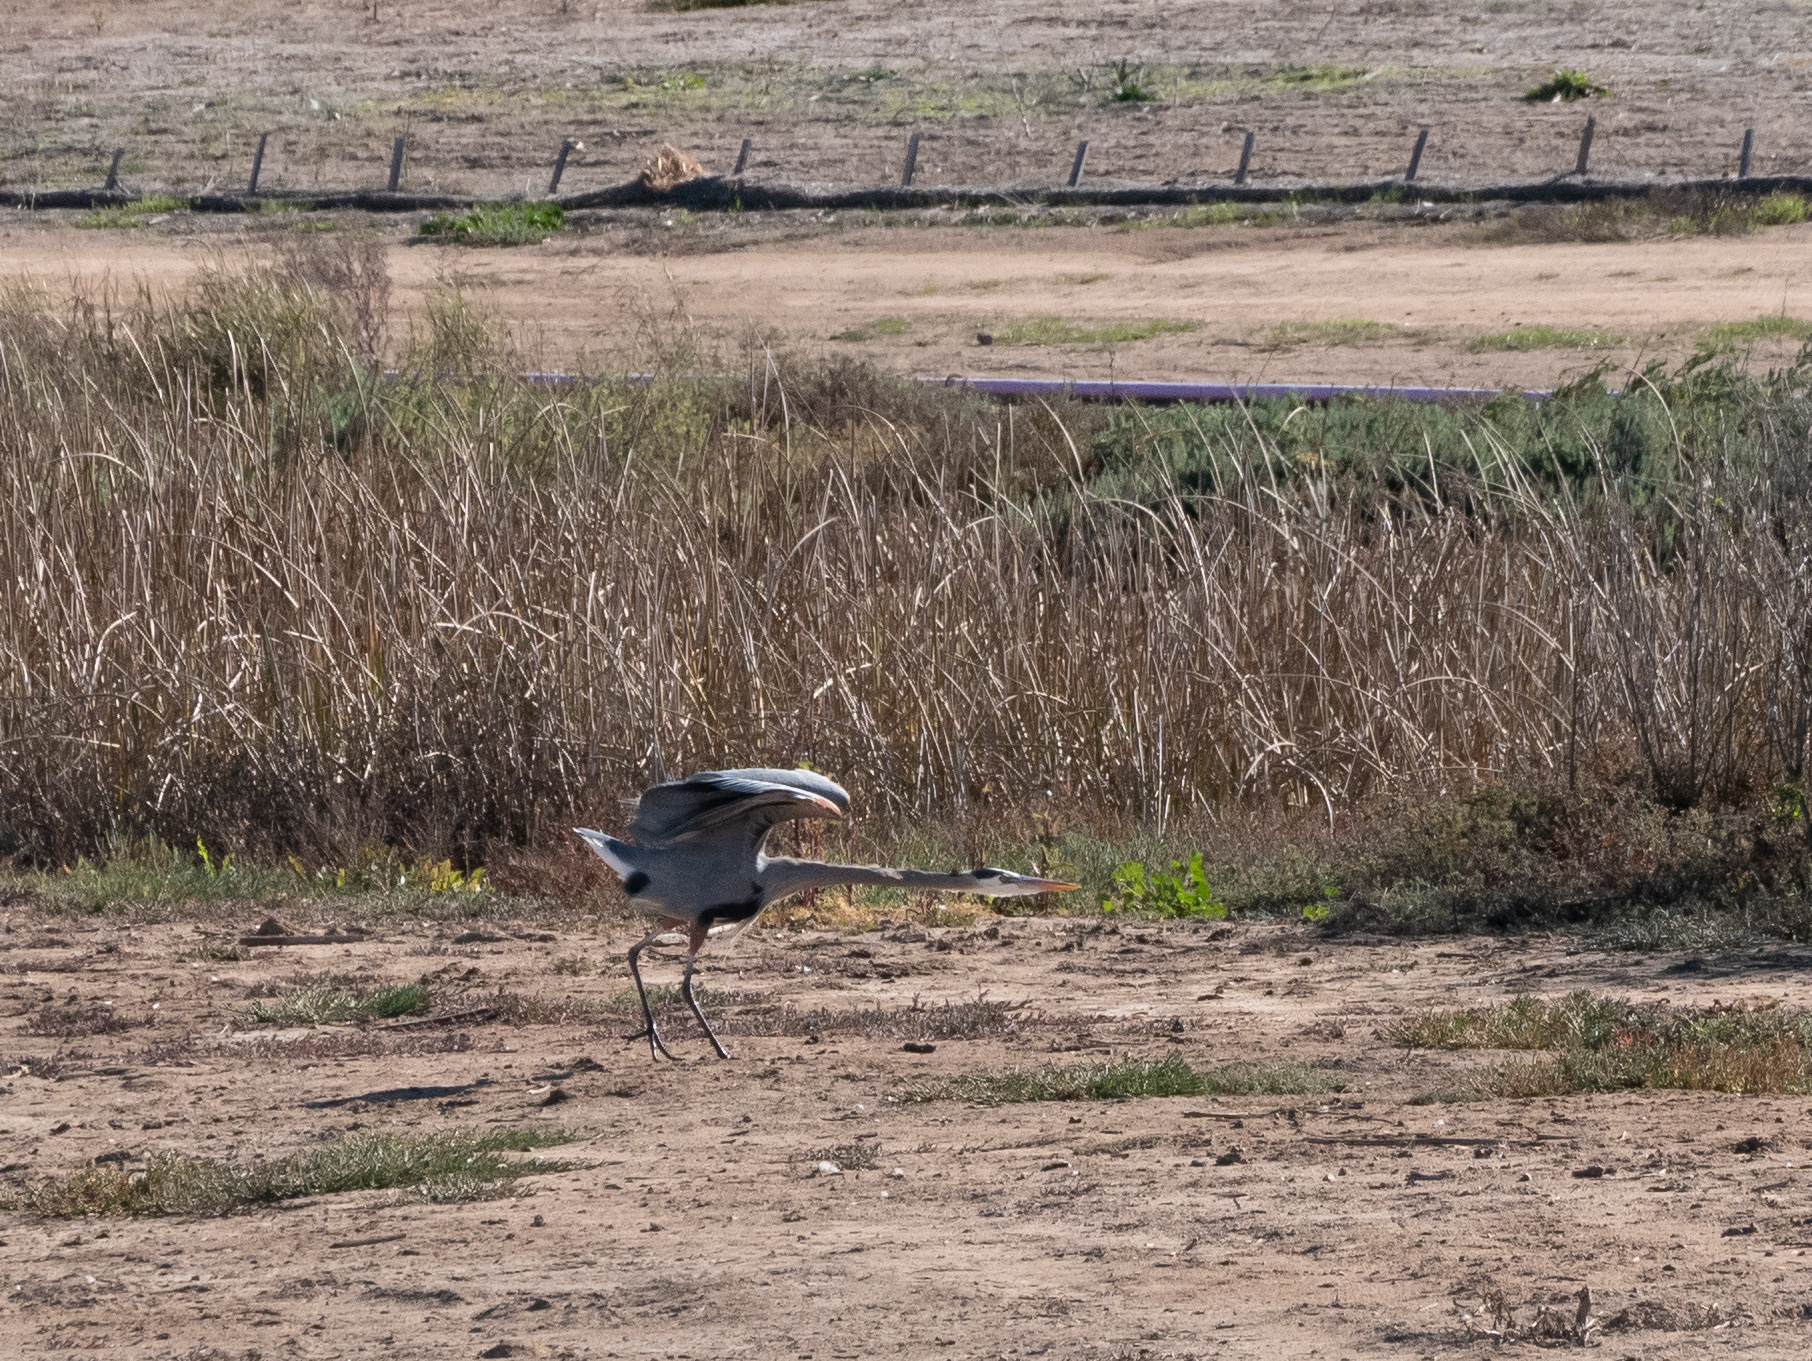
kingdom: Animalia
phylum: Chordata
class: Aves
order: Pelecaniformes
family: Ardeidae
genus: Ardea
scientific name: Ardea herodias
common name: Great blue heron
